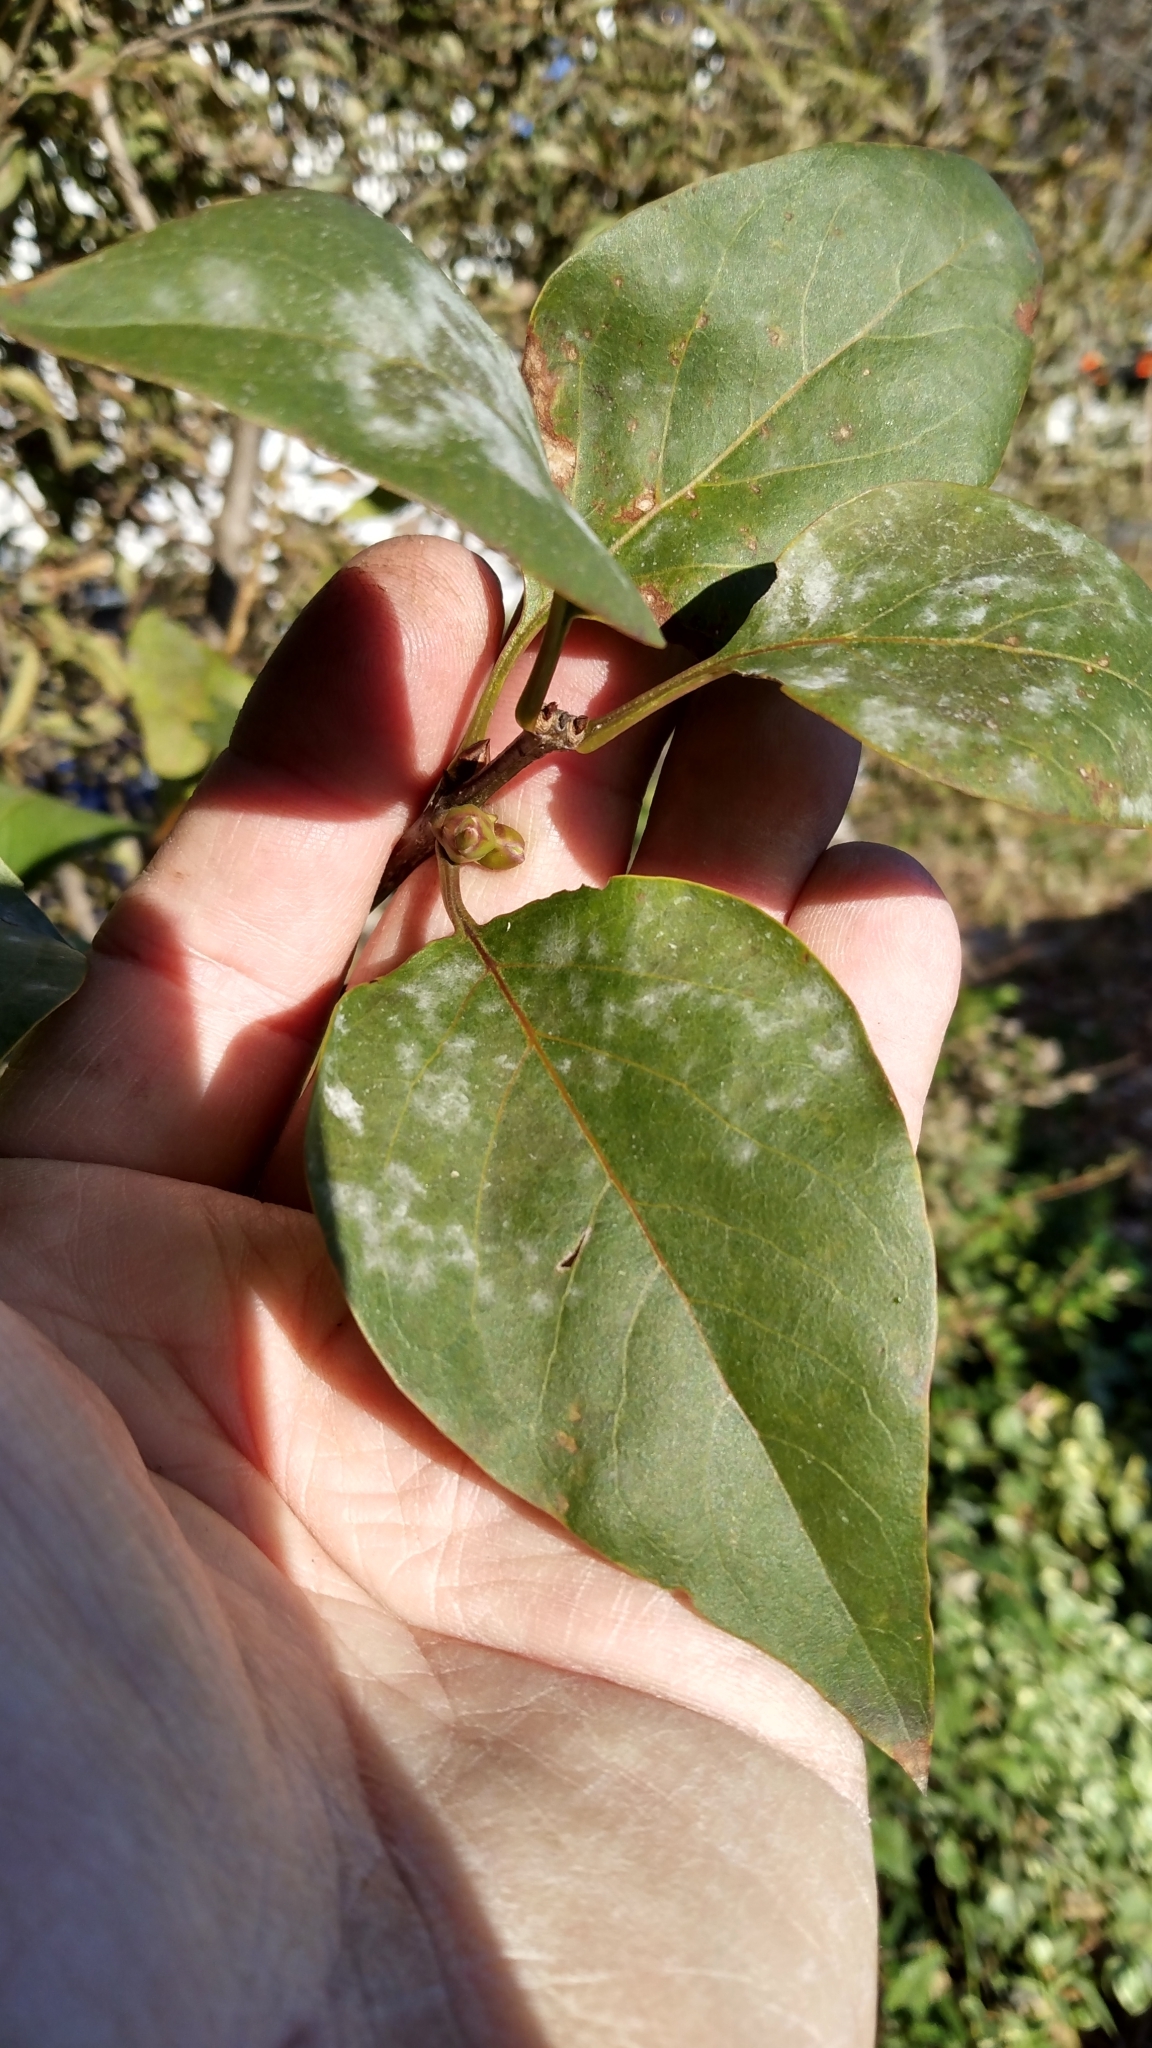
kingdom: Fungi
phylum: Ascomycota
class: Leotiomycetes
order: Helotiales
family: Erysiphaceae
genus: Erysiphe
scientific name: Erysiphe syringae
